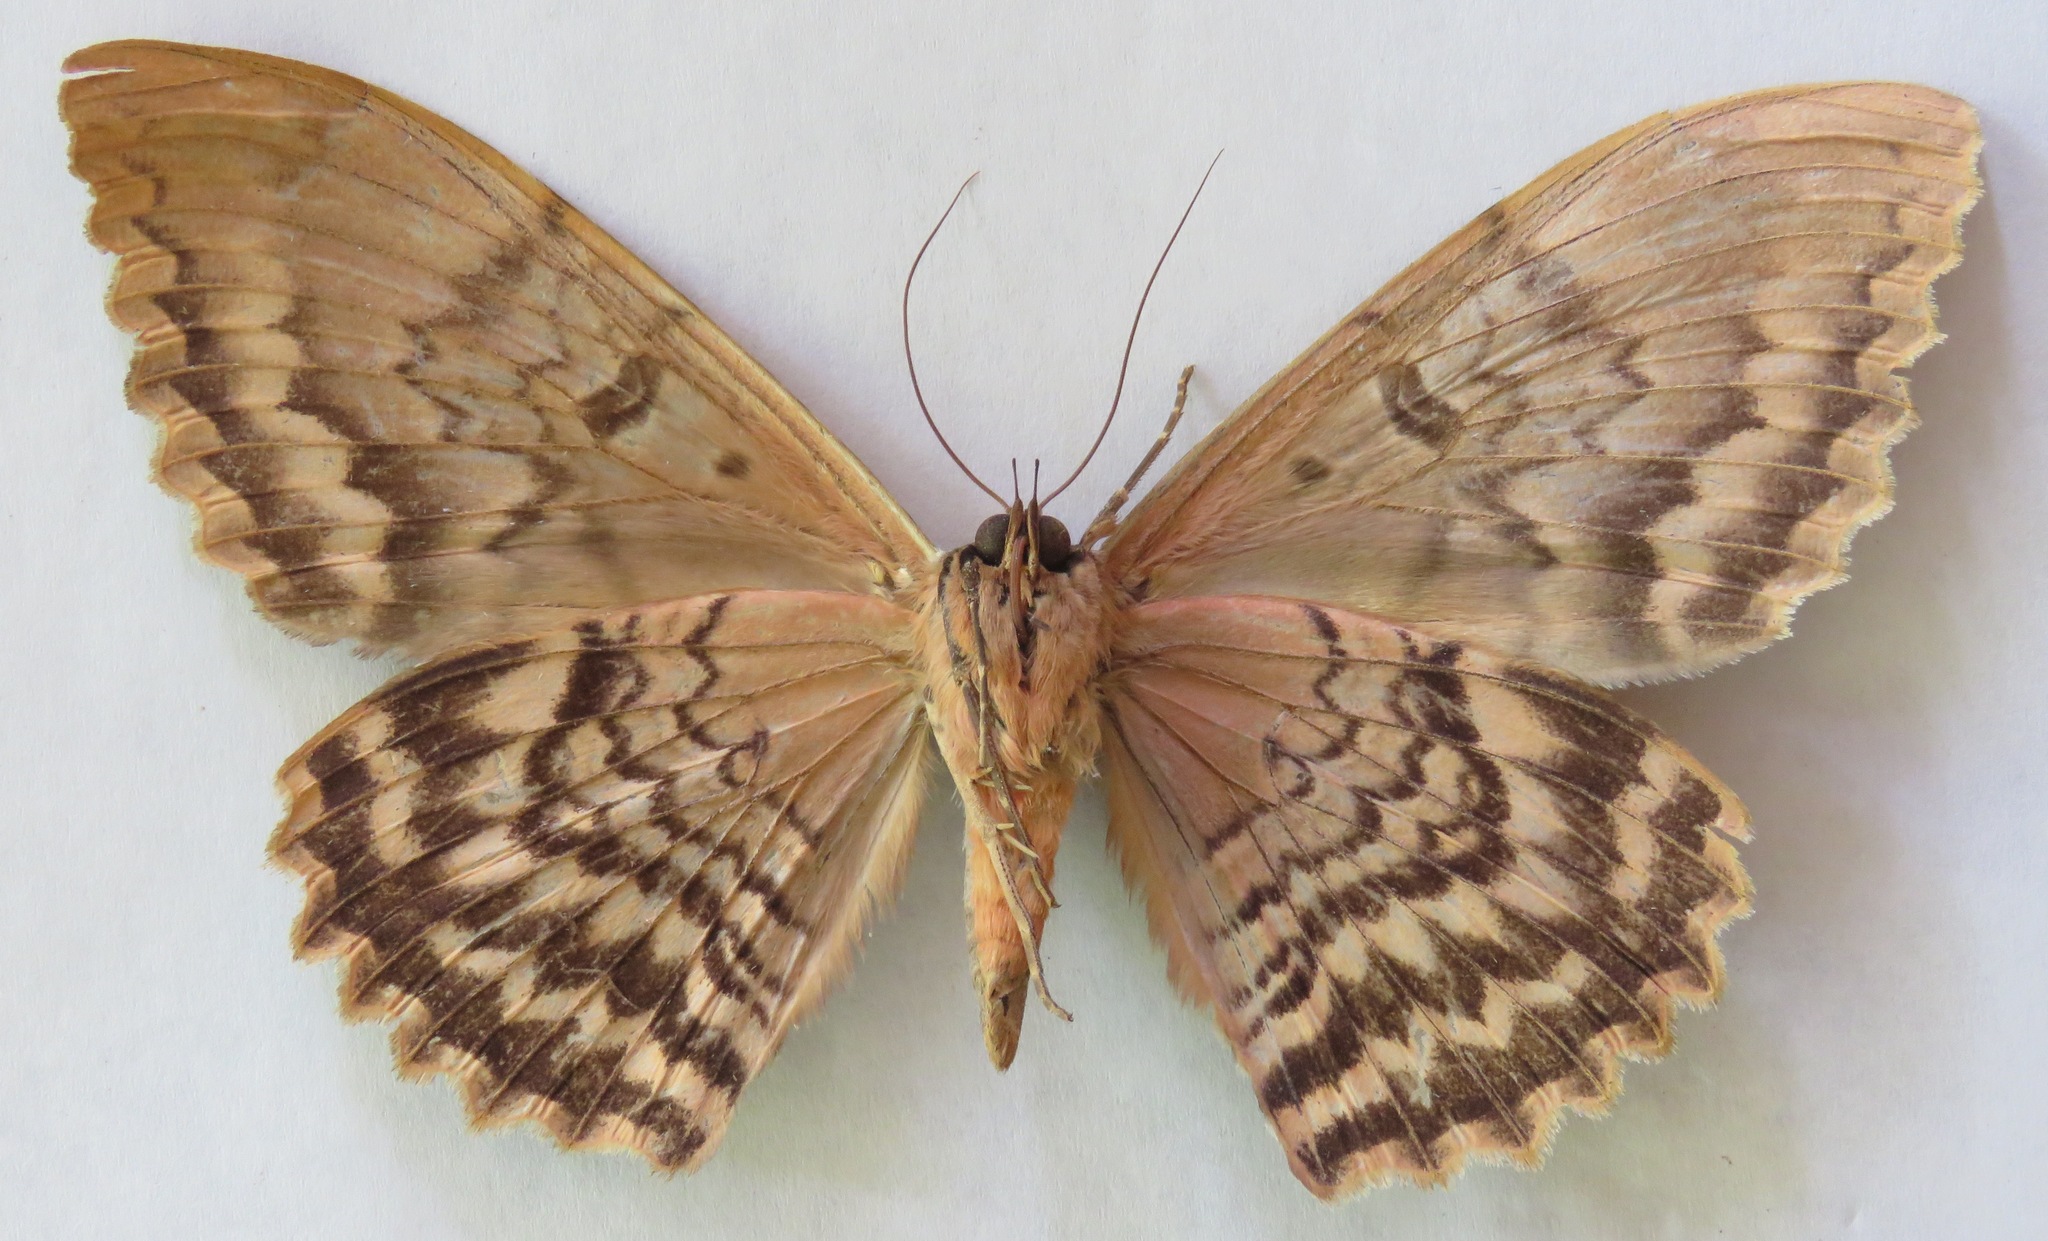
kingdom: Animalia
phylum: Arthropoda
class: Insecta
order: Lepidoptera
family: Erebidae
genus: Thysania
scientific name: Thysania zenobia
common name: Owl moth
